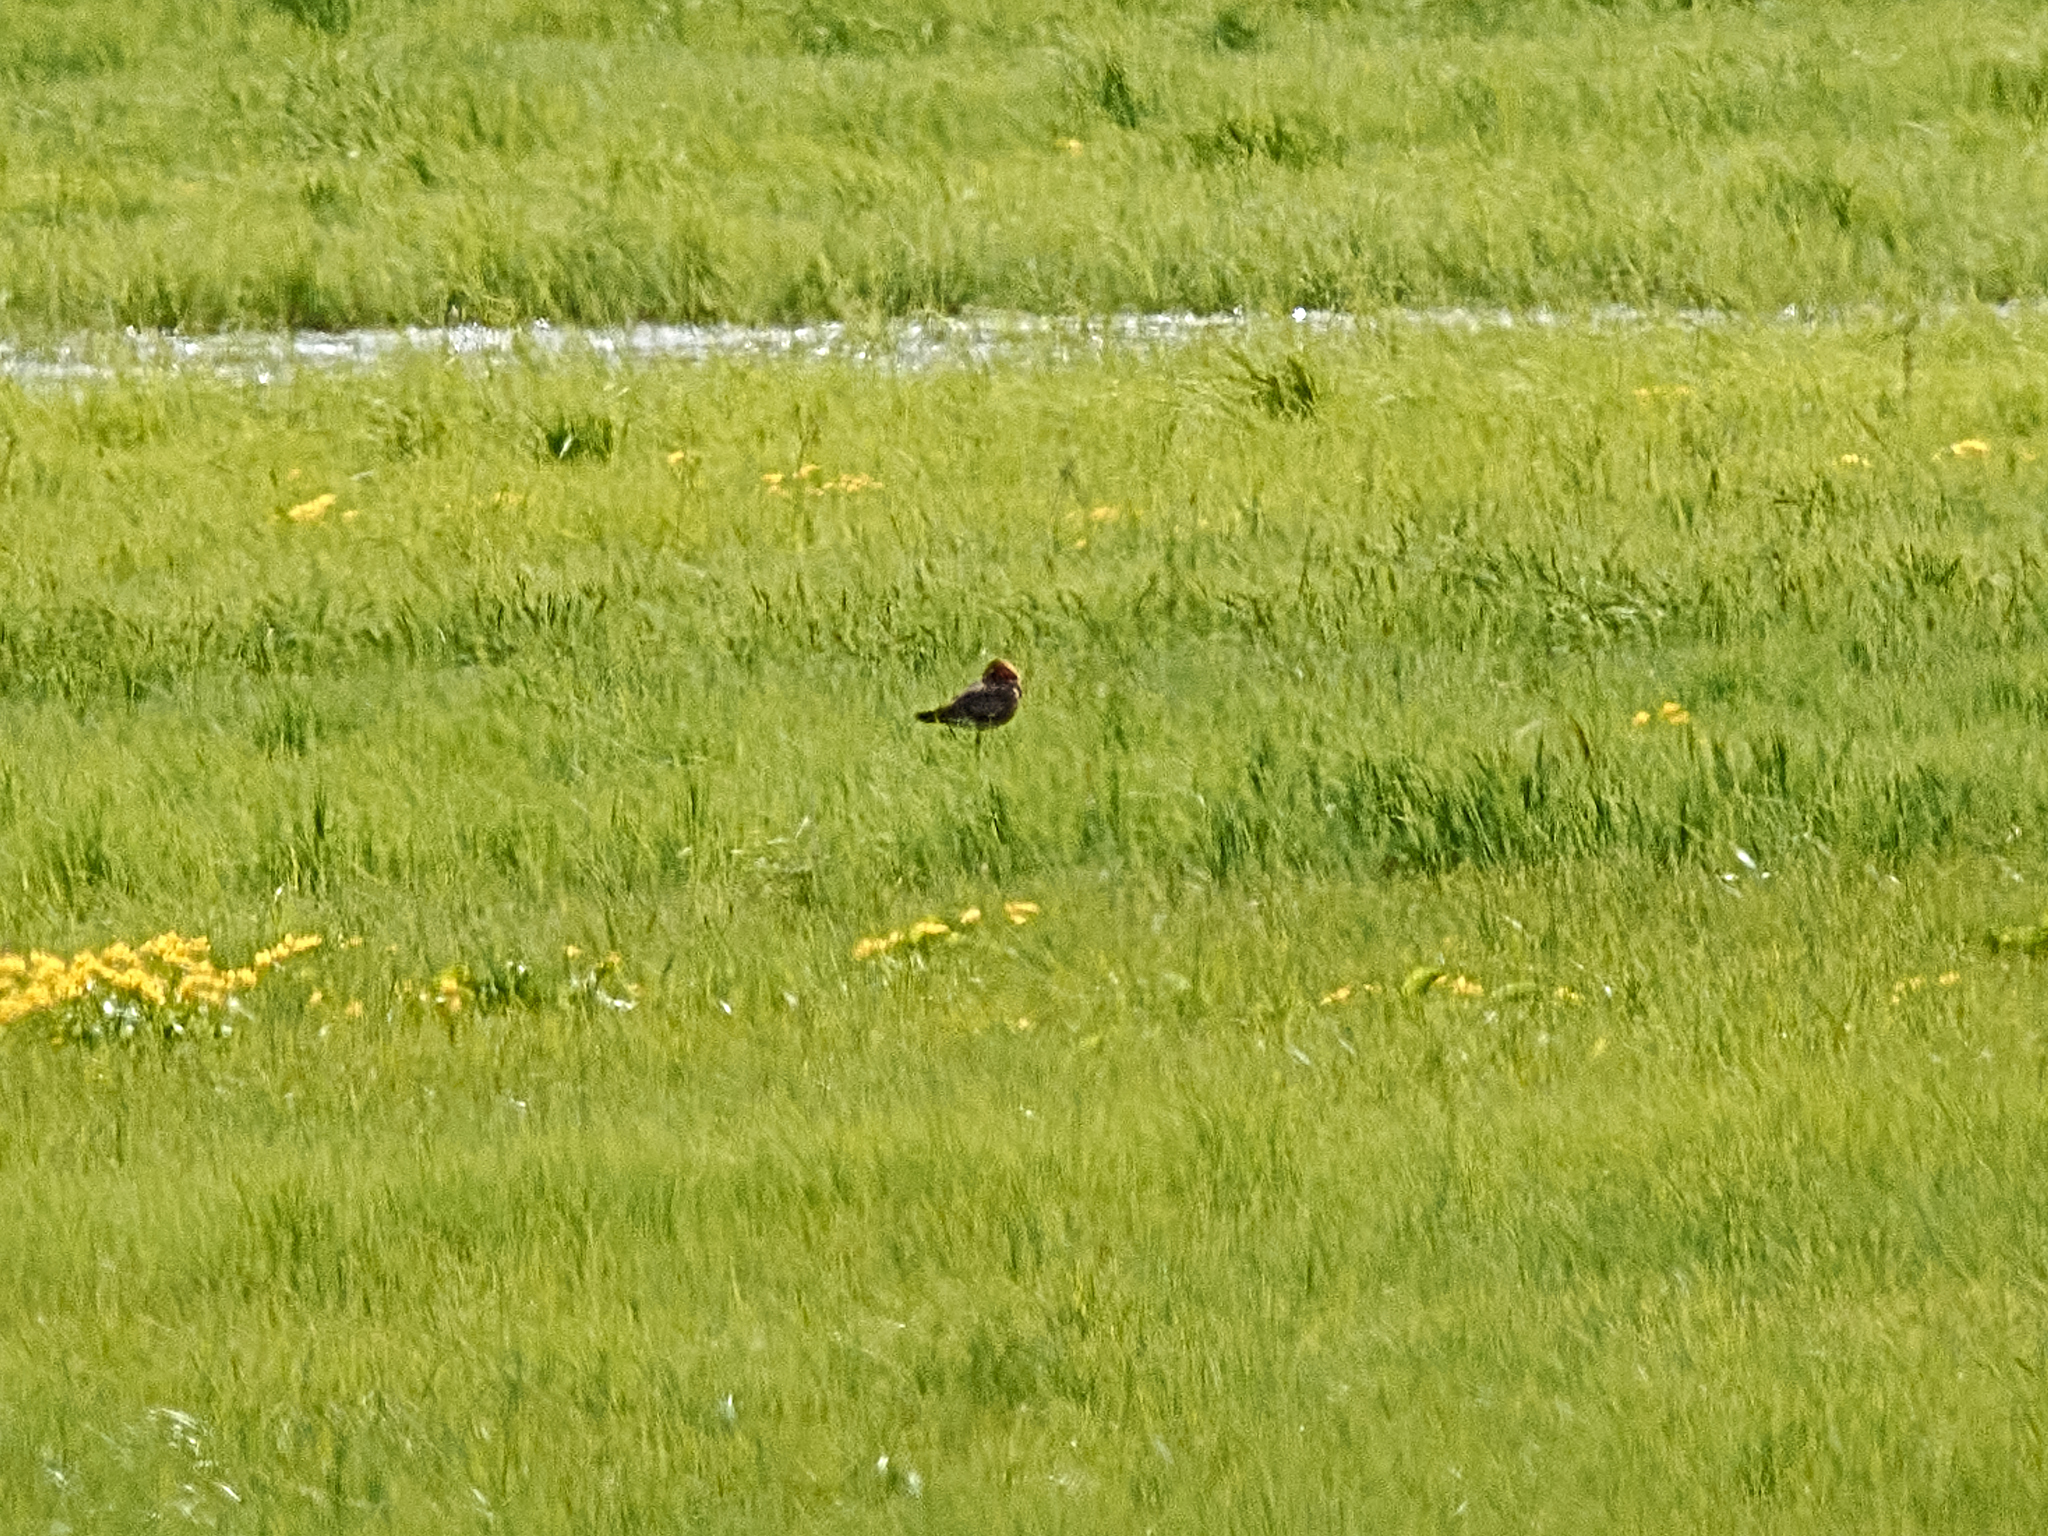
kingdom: Animalia
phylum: Chordata
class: Aves
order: Charadriiformes
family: Scolopacidae
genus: Calidris
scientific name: Calidris pugnax
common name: Ruff
